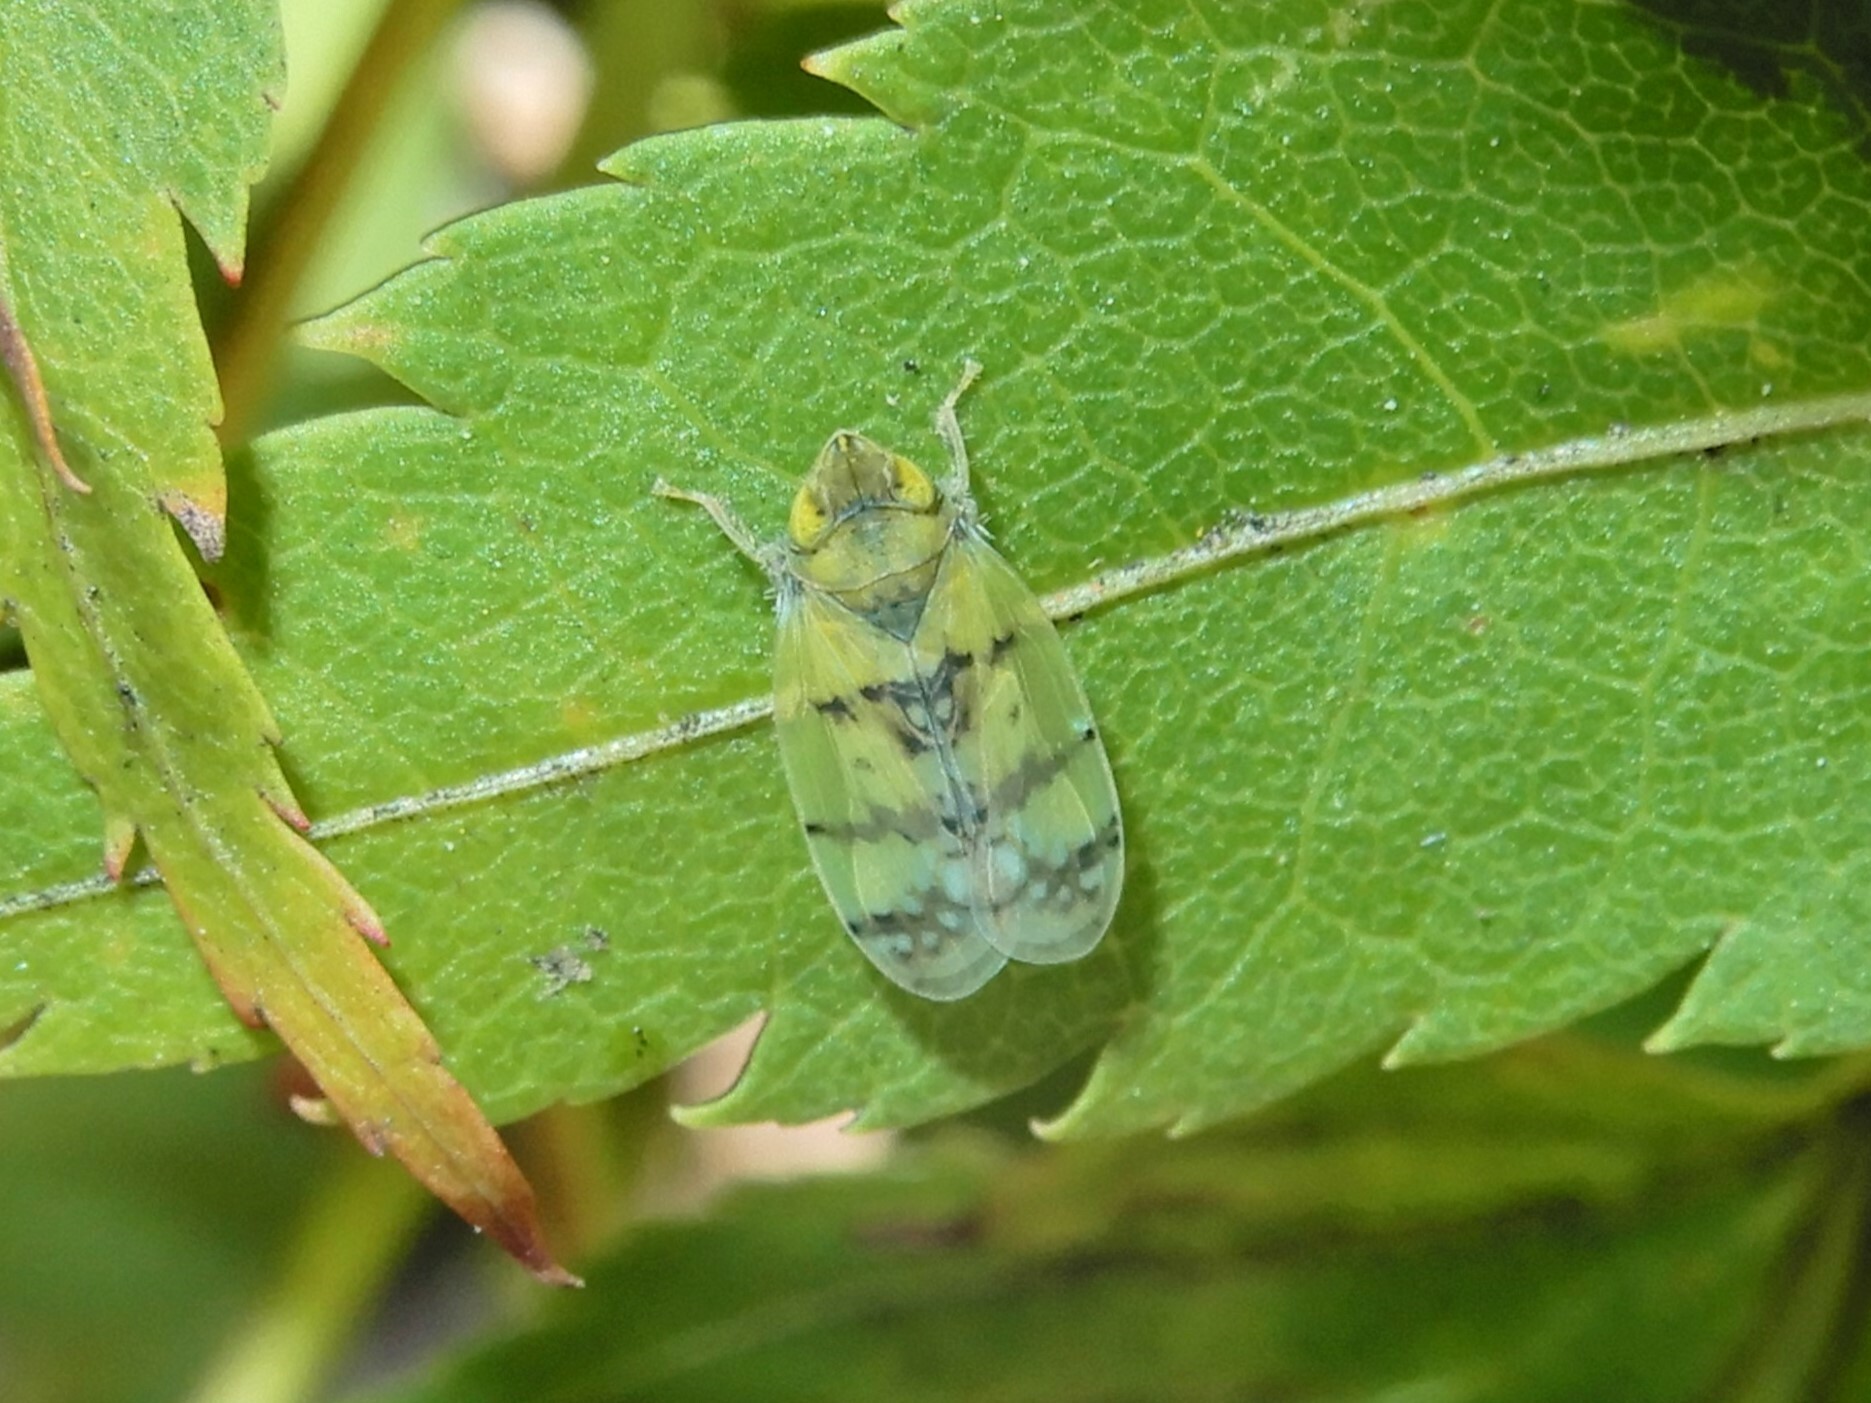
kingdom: Animalia
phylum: Arthropoda
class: Insecta
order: Hemiptera
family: Cicadellidae
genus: Japananus
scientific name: Japananus hyalinus
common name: The japanese maple leafhopper
